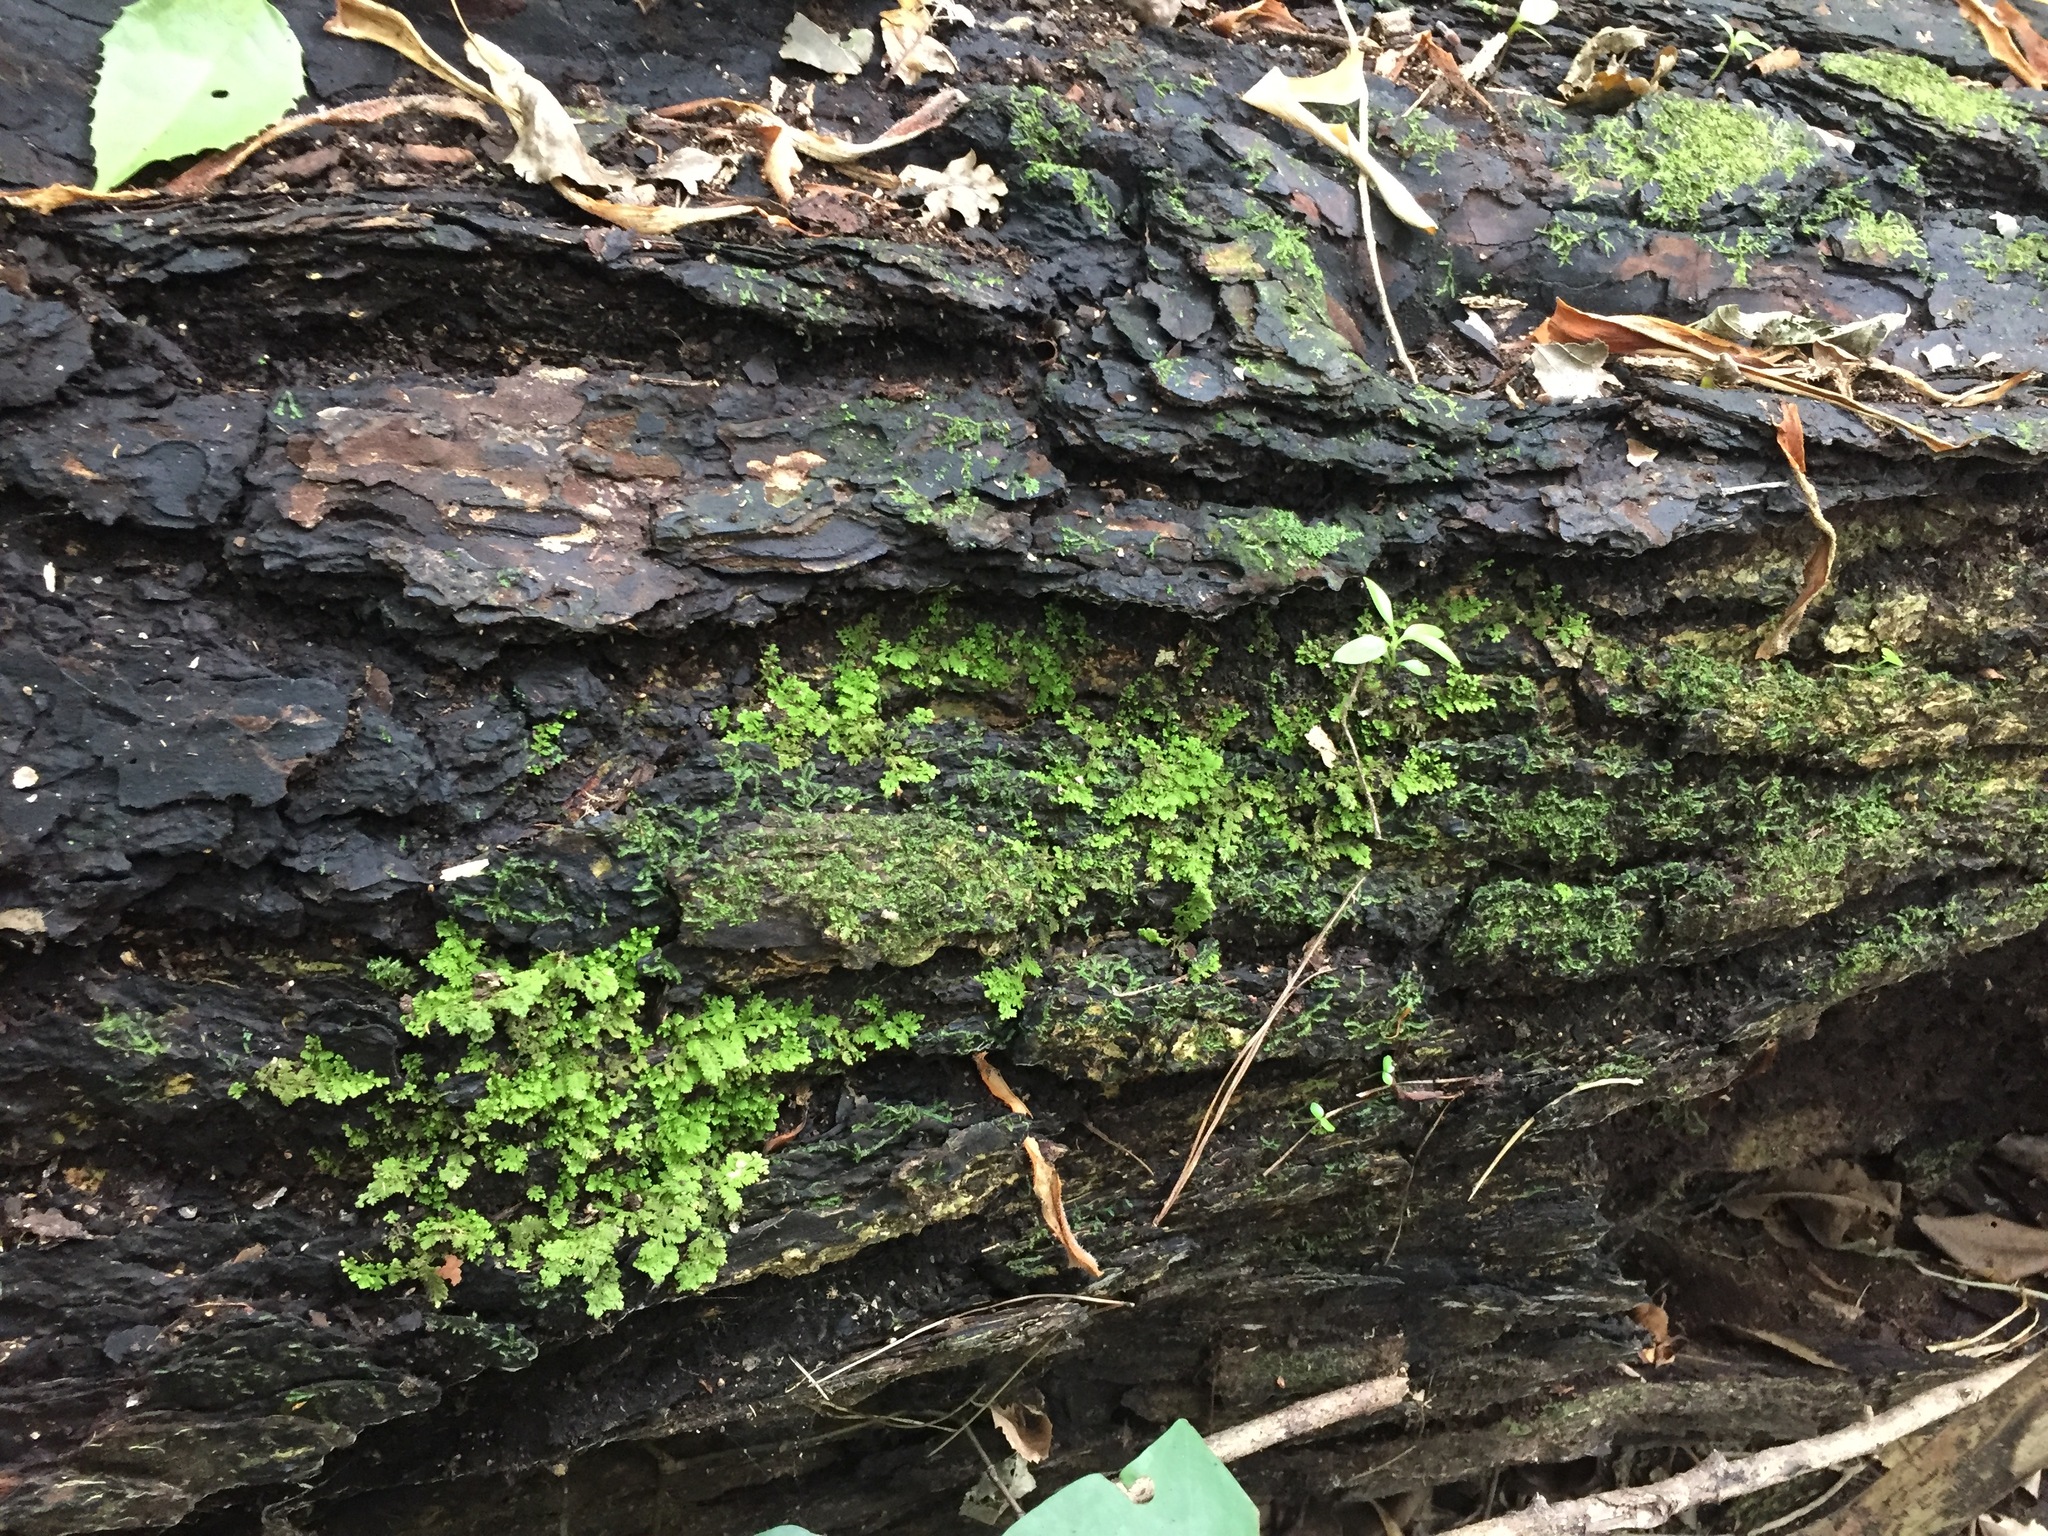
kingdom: Plantae
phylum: Marchantiophyta
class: Jungermanniopsida
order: Jungermanniales
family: Trichocoleaceae
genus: Trichocolea
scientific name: Trichocolea mollissima
